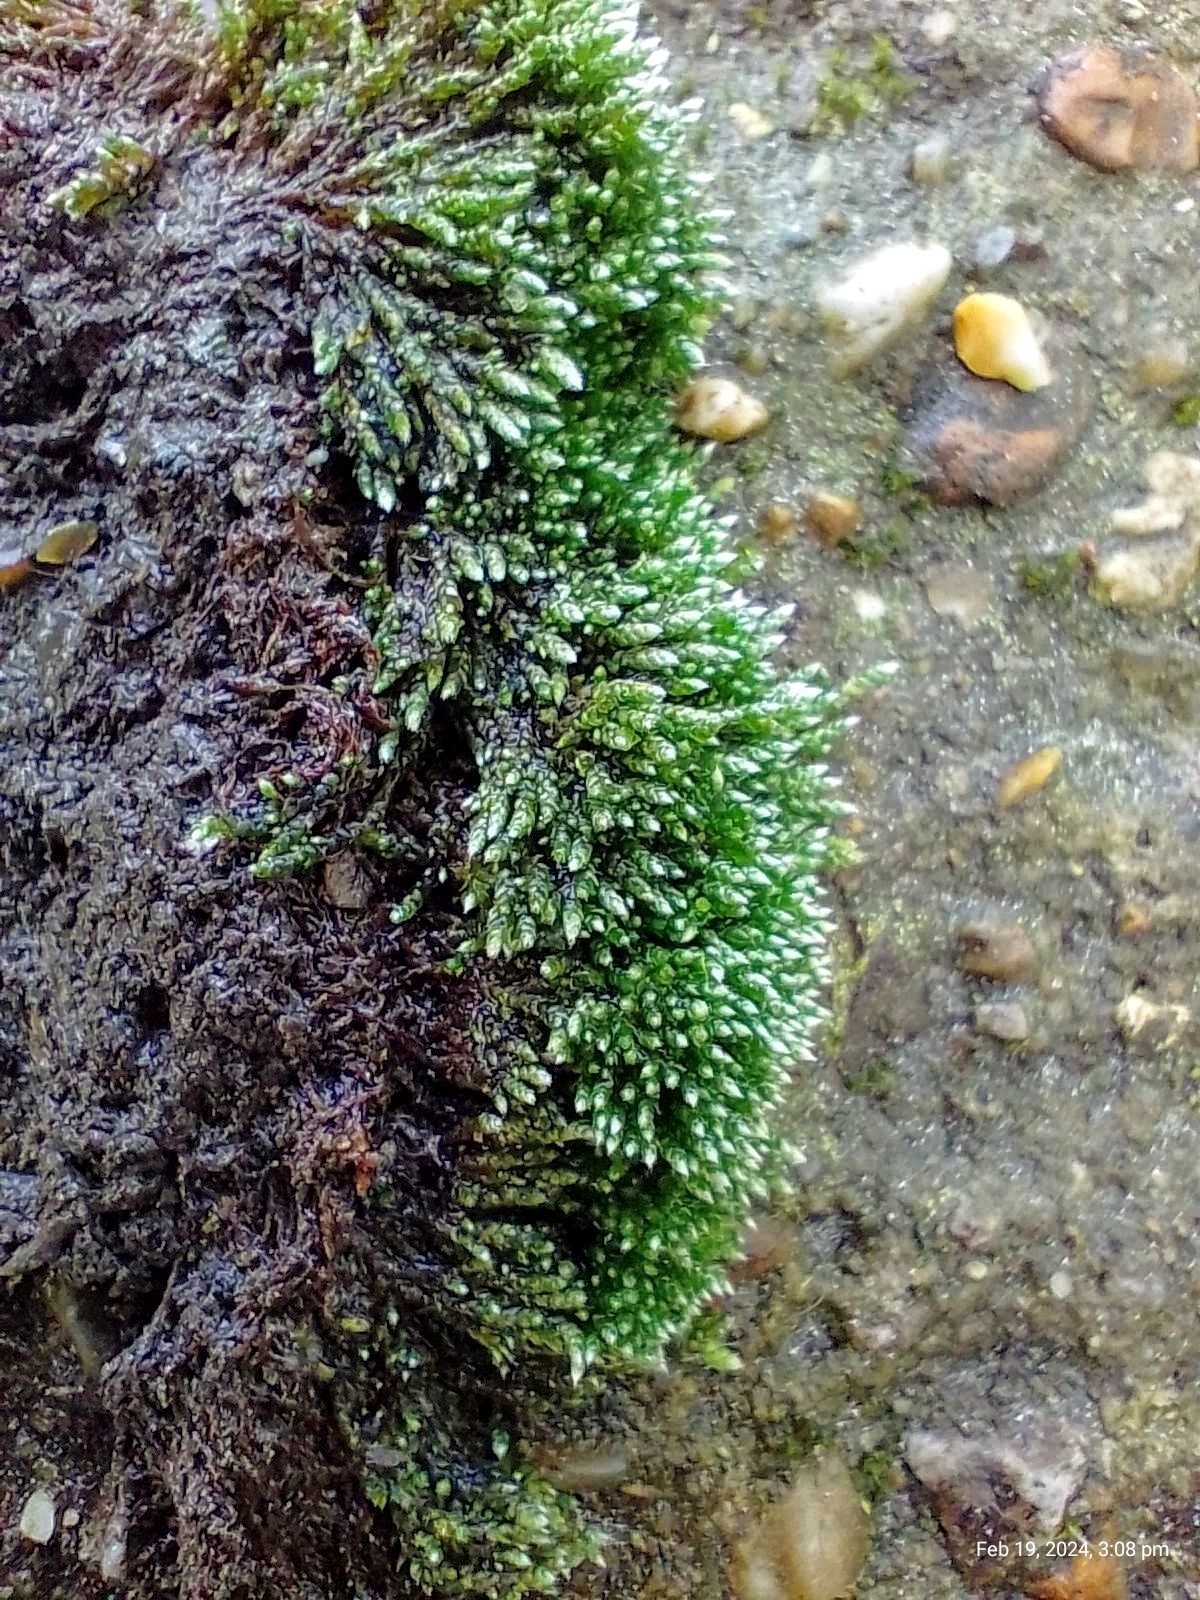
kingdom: Plantae
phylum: Bryophyta
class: Bryopsida
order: Bryales
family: Bryaceae
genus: Bryum
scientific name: Bryum argenteum
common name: Silver-moss
